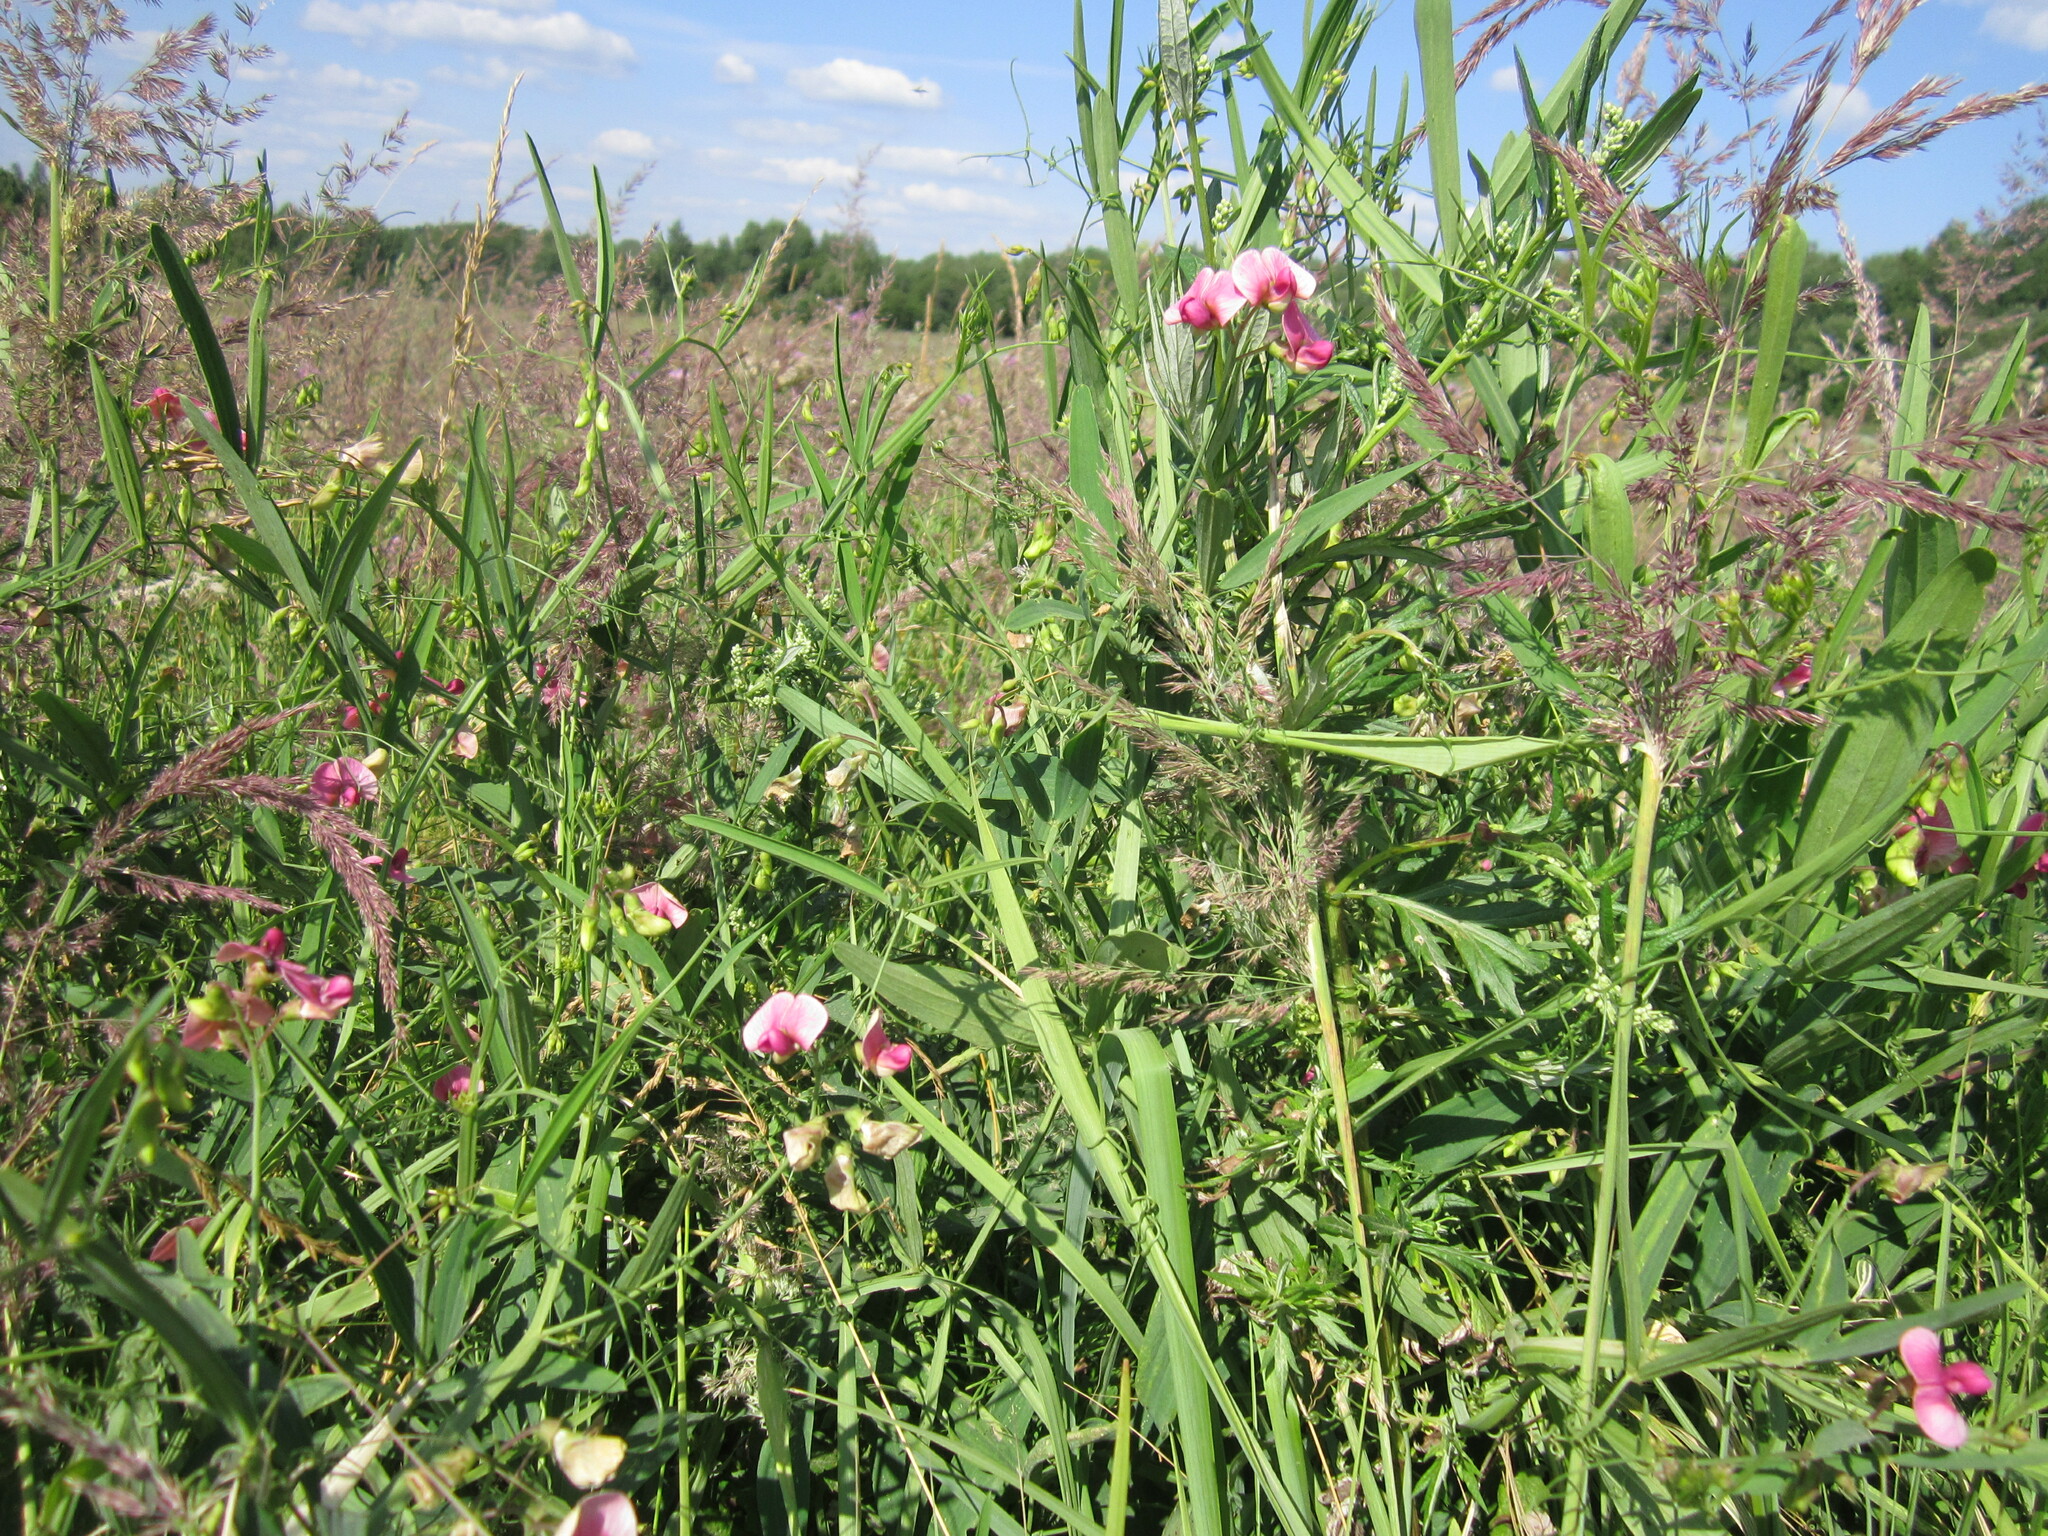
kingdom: Plantae
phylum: Tracheophyta
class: Magnoliopsida
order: Fabales
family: Fabaceae
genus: Lathyrus
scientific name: Lathyrus sylvestris
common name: Flat pea
